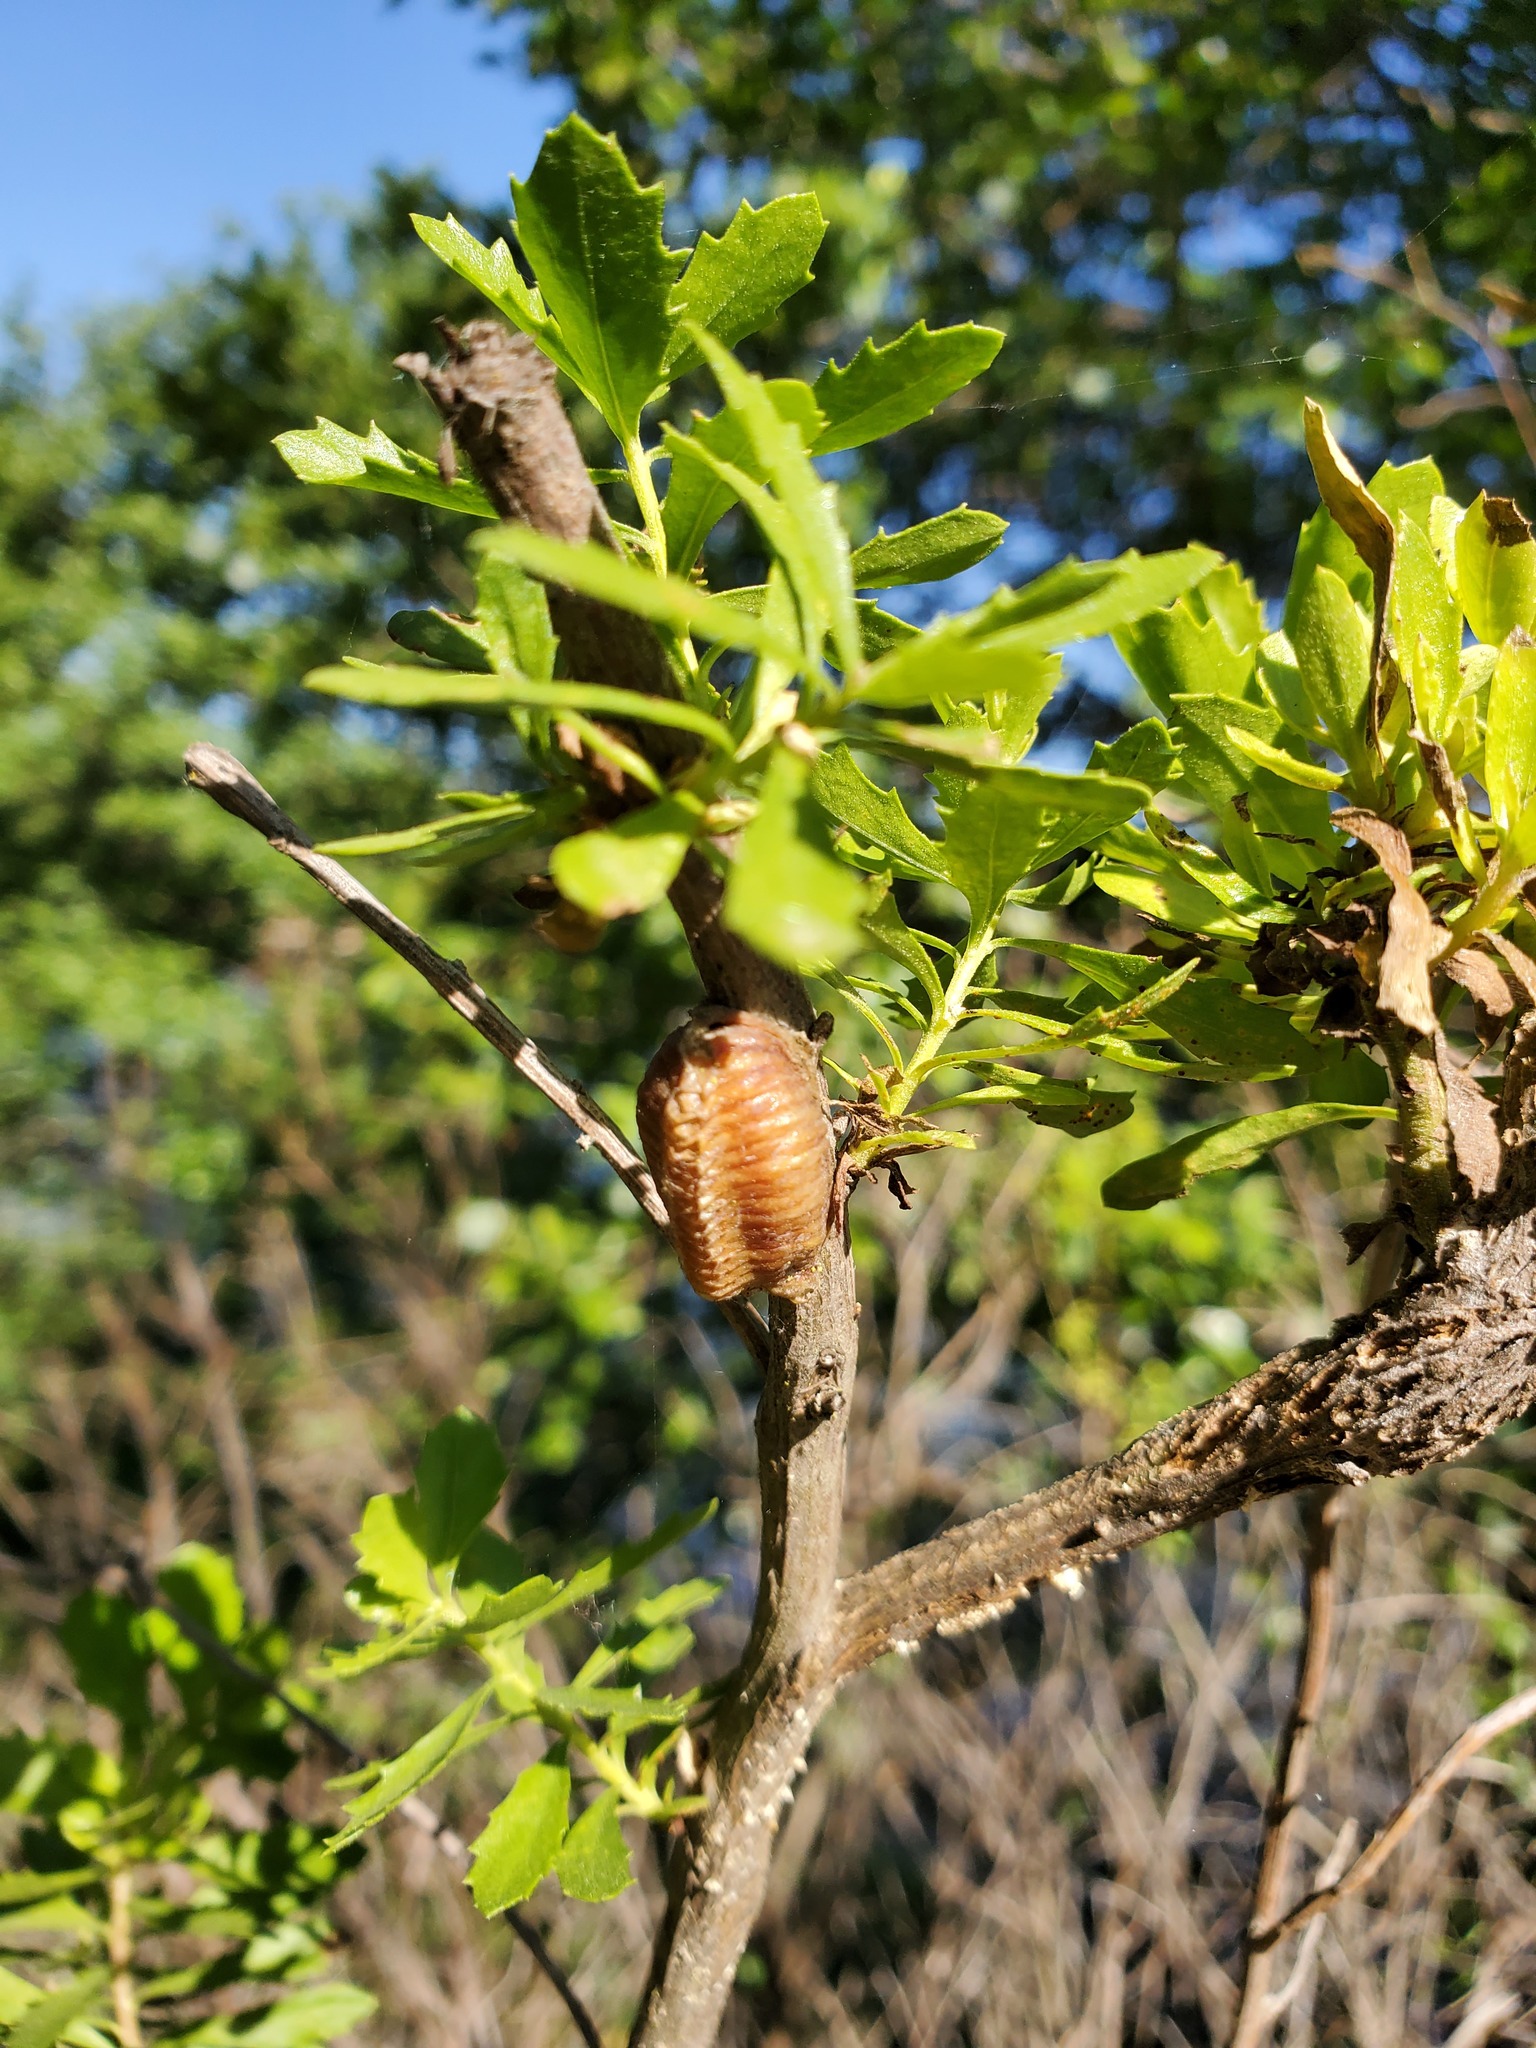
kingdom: Animalia
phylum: Arthropoda
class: Insecta
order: Mantodea
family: Mantidae
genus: Stagmomantis
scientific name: Stagmomantis limbata
